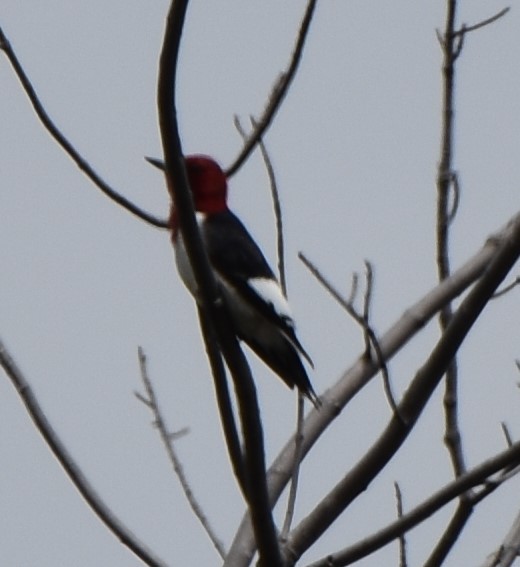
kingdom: Animalia
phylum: Chordata
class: Aves
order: Piciformes
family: Picidae
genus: Melanerpes
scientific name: Melanerpes erythrocephalus
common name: Red-headed woodpecker
